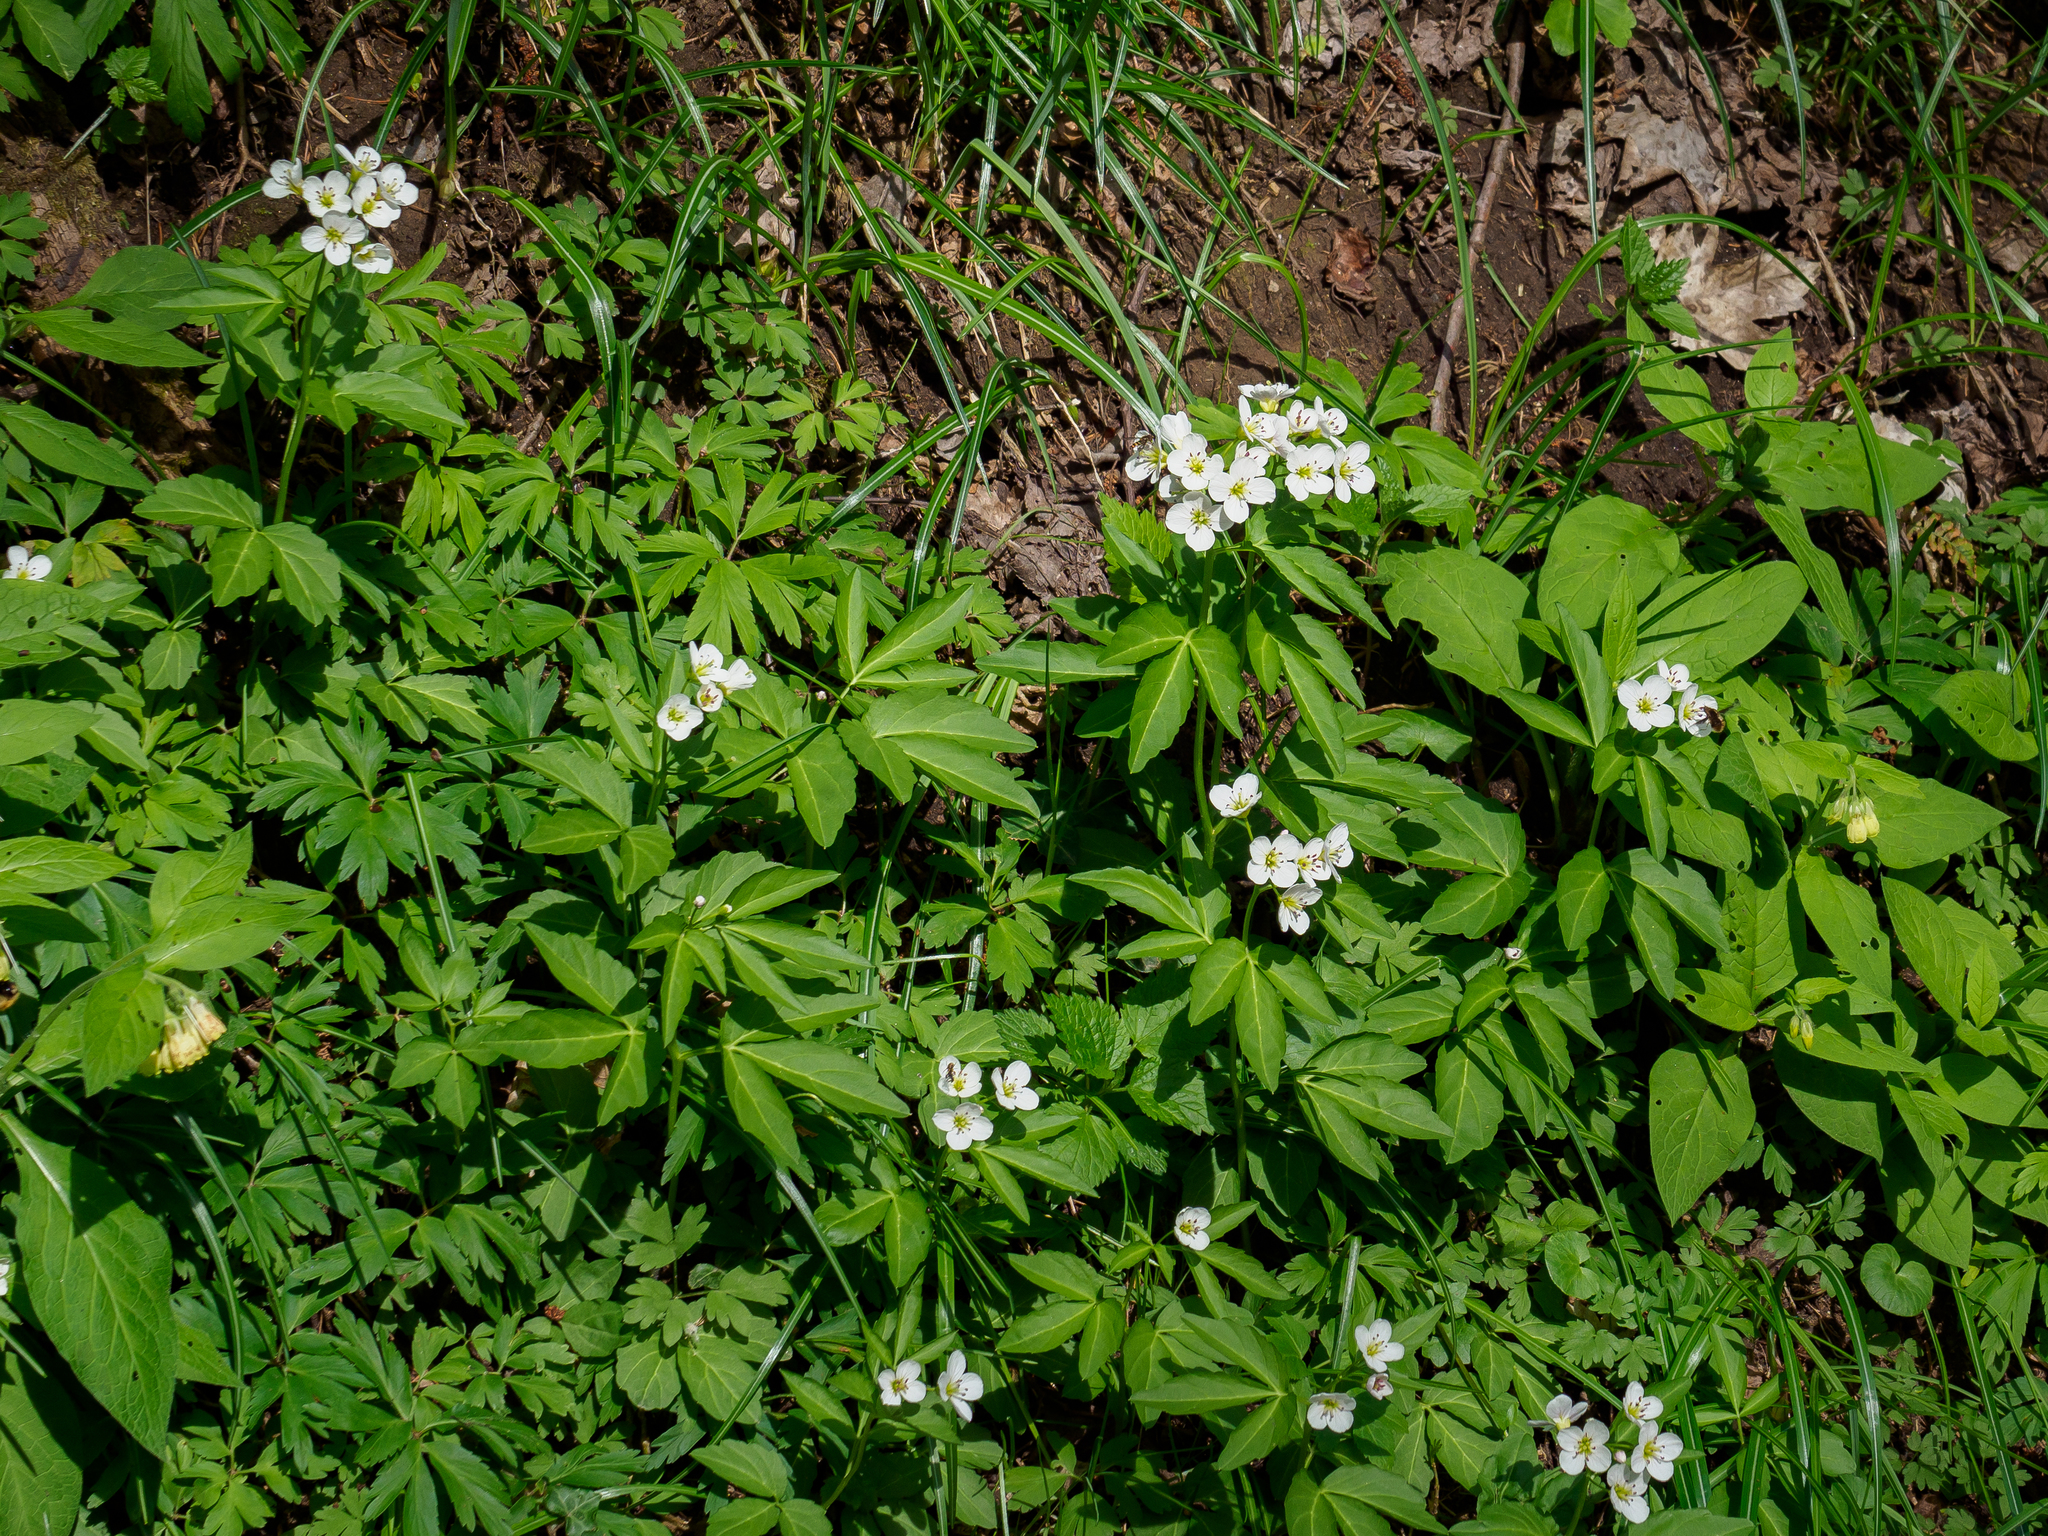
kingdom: Plantae
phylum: Tracheophyta
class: Magnoliopsida
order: Brassicales
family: Brassicaceae
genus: Cardamine
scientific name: Cardamine waldsteinii
